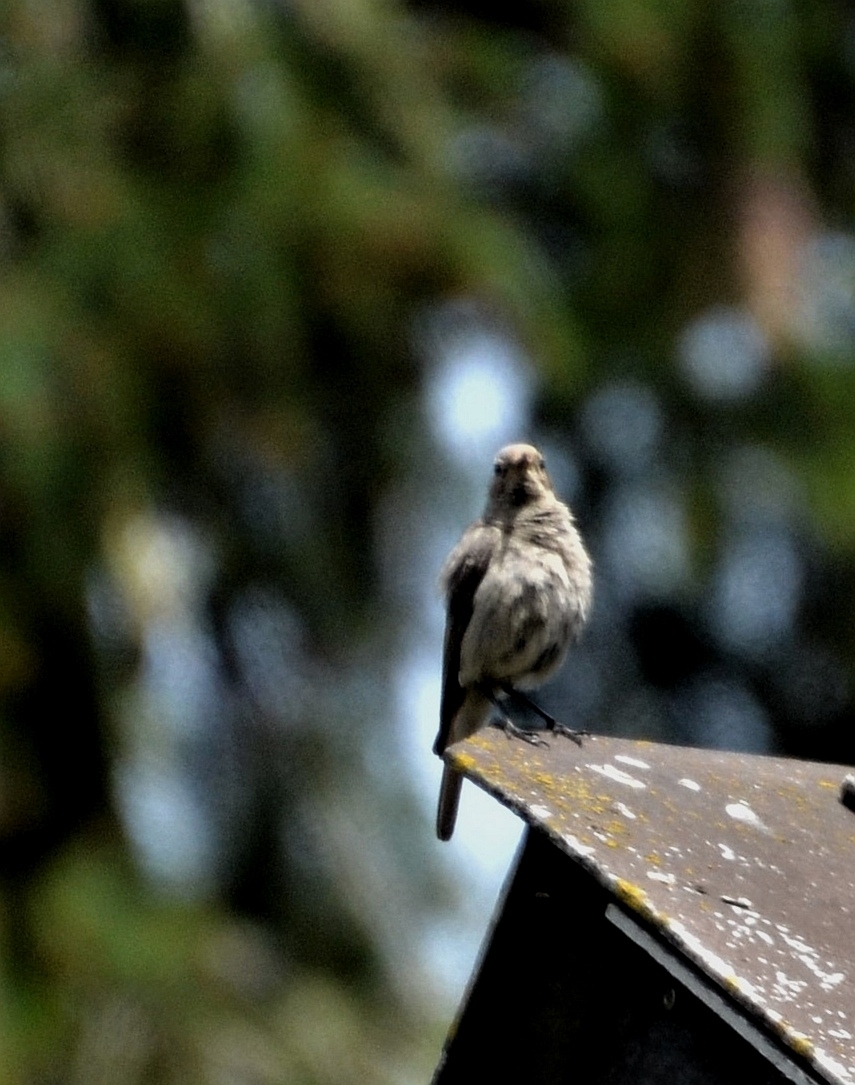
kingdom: Animalia
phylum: Chordata
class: Aves
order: Passeriformes
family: Muscicapidae
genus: Muscicapa
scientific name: Muscicapa striata
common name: Spotted flycatcher
